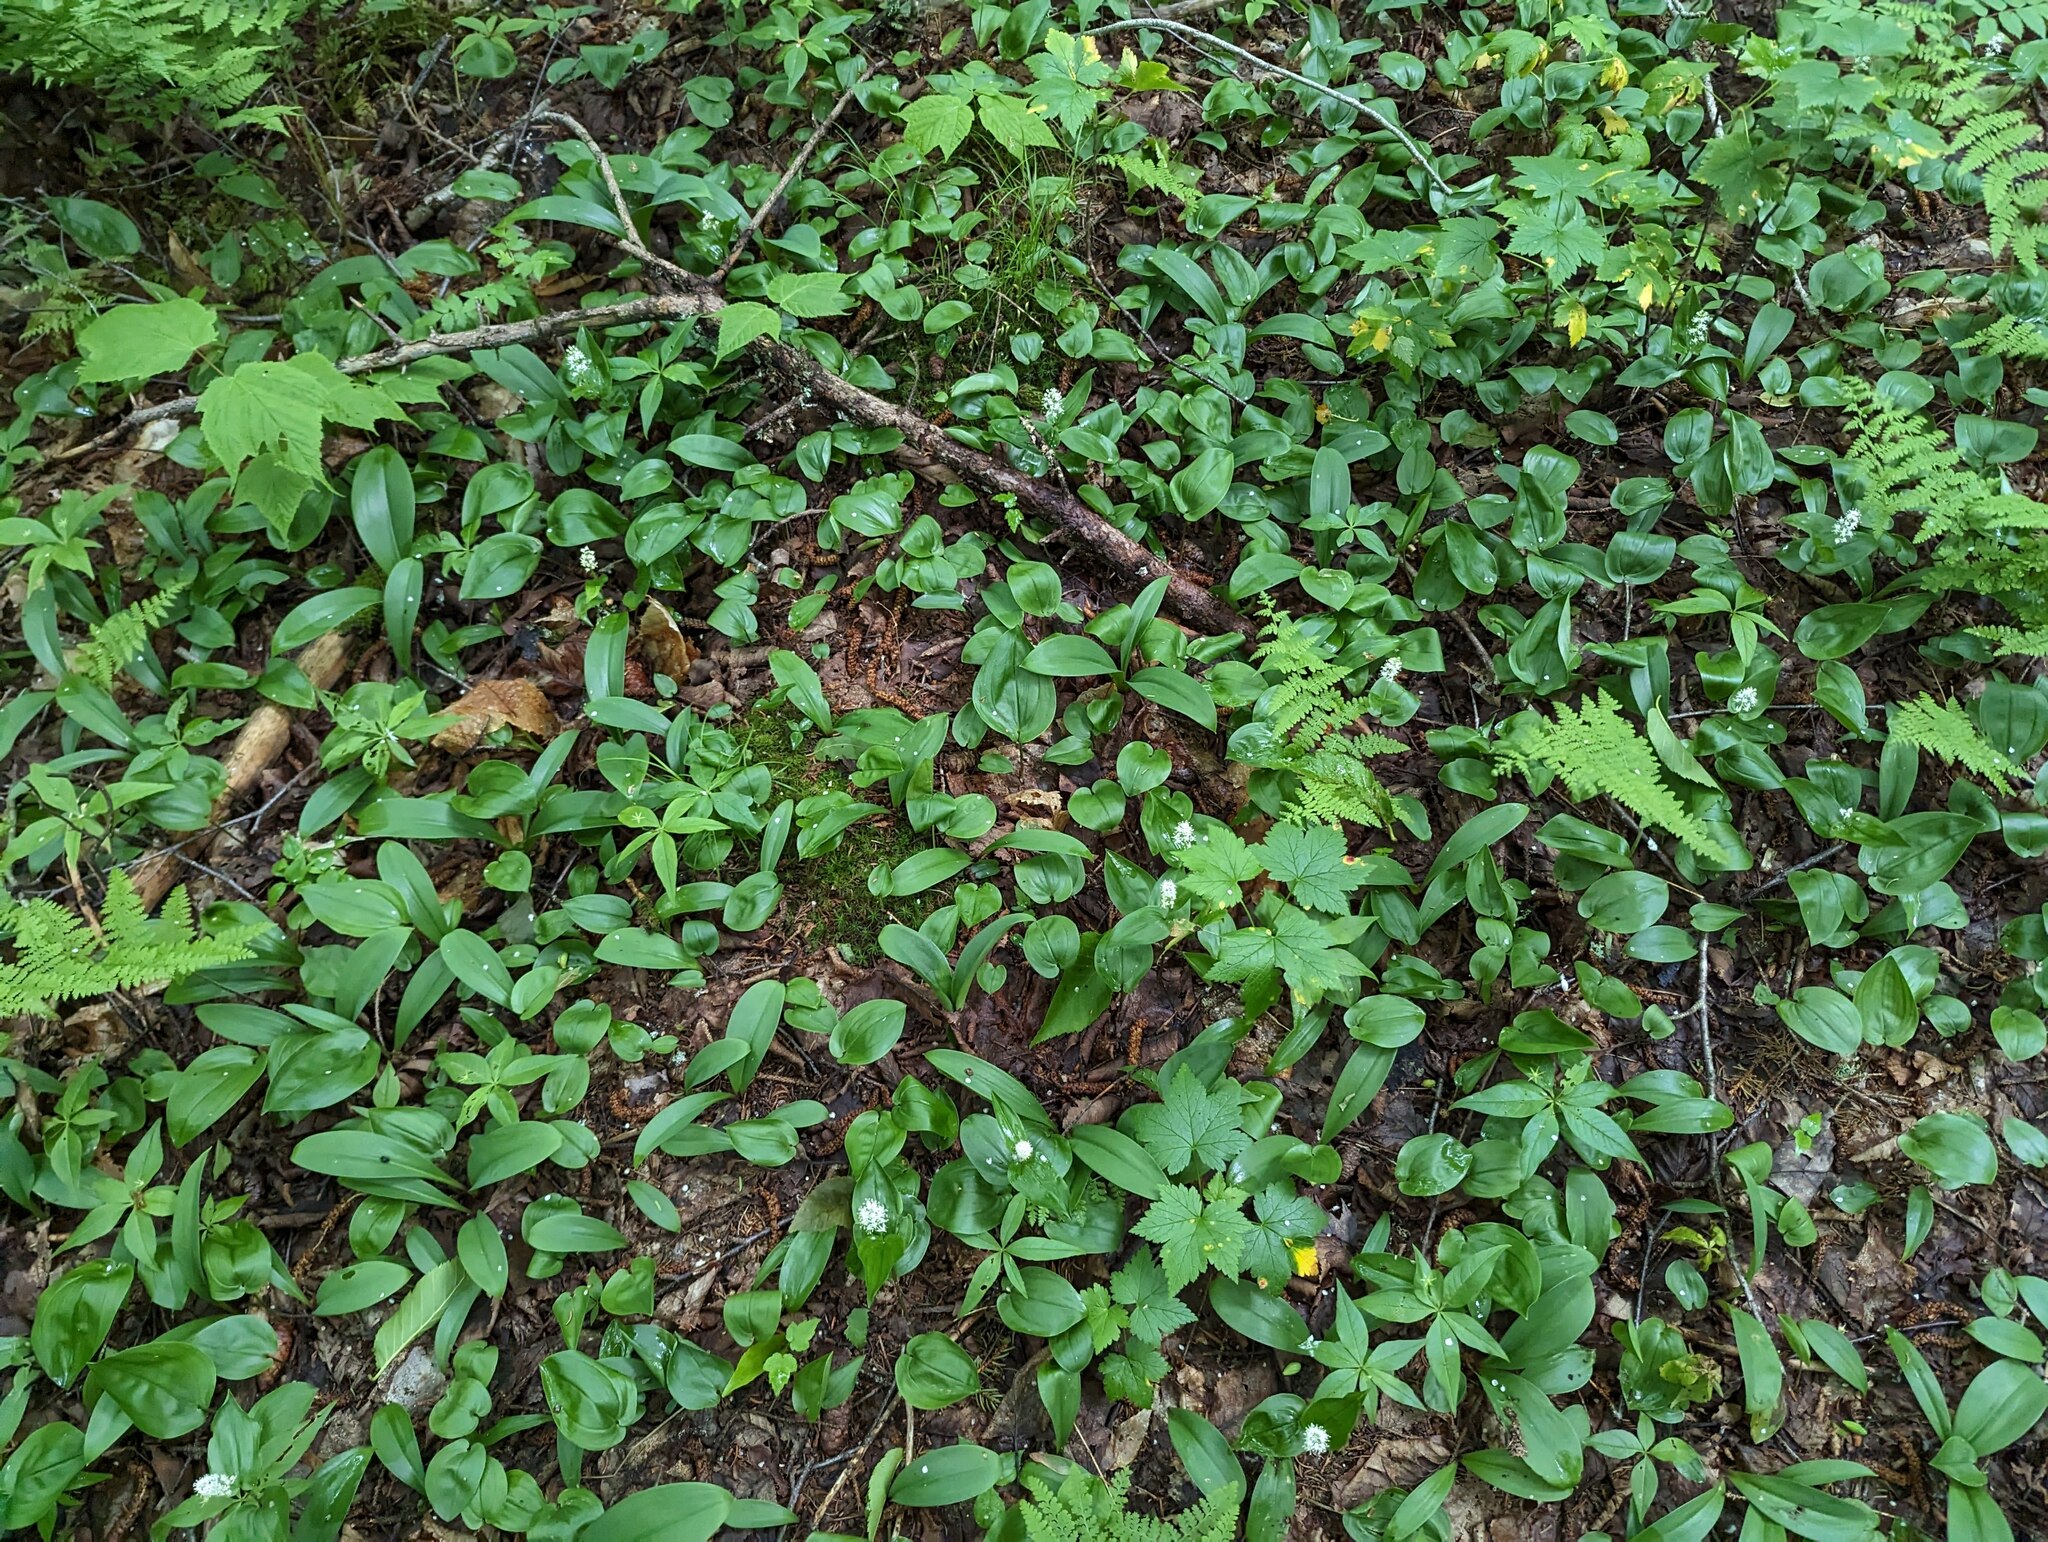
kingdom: Plantae
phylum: Tracheophyta
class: Liliopsida
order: Asparagales
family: Asparagaceae
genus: Maianthemum
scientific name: Maianthemum canadense
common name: False lily-of-the-valley
